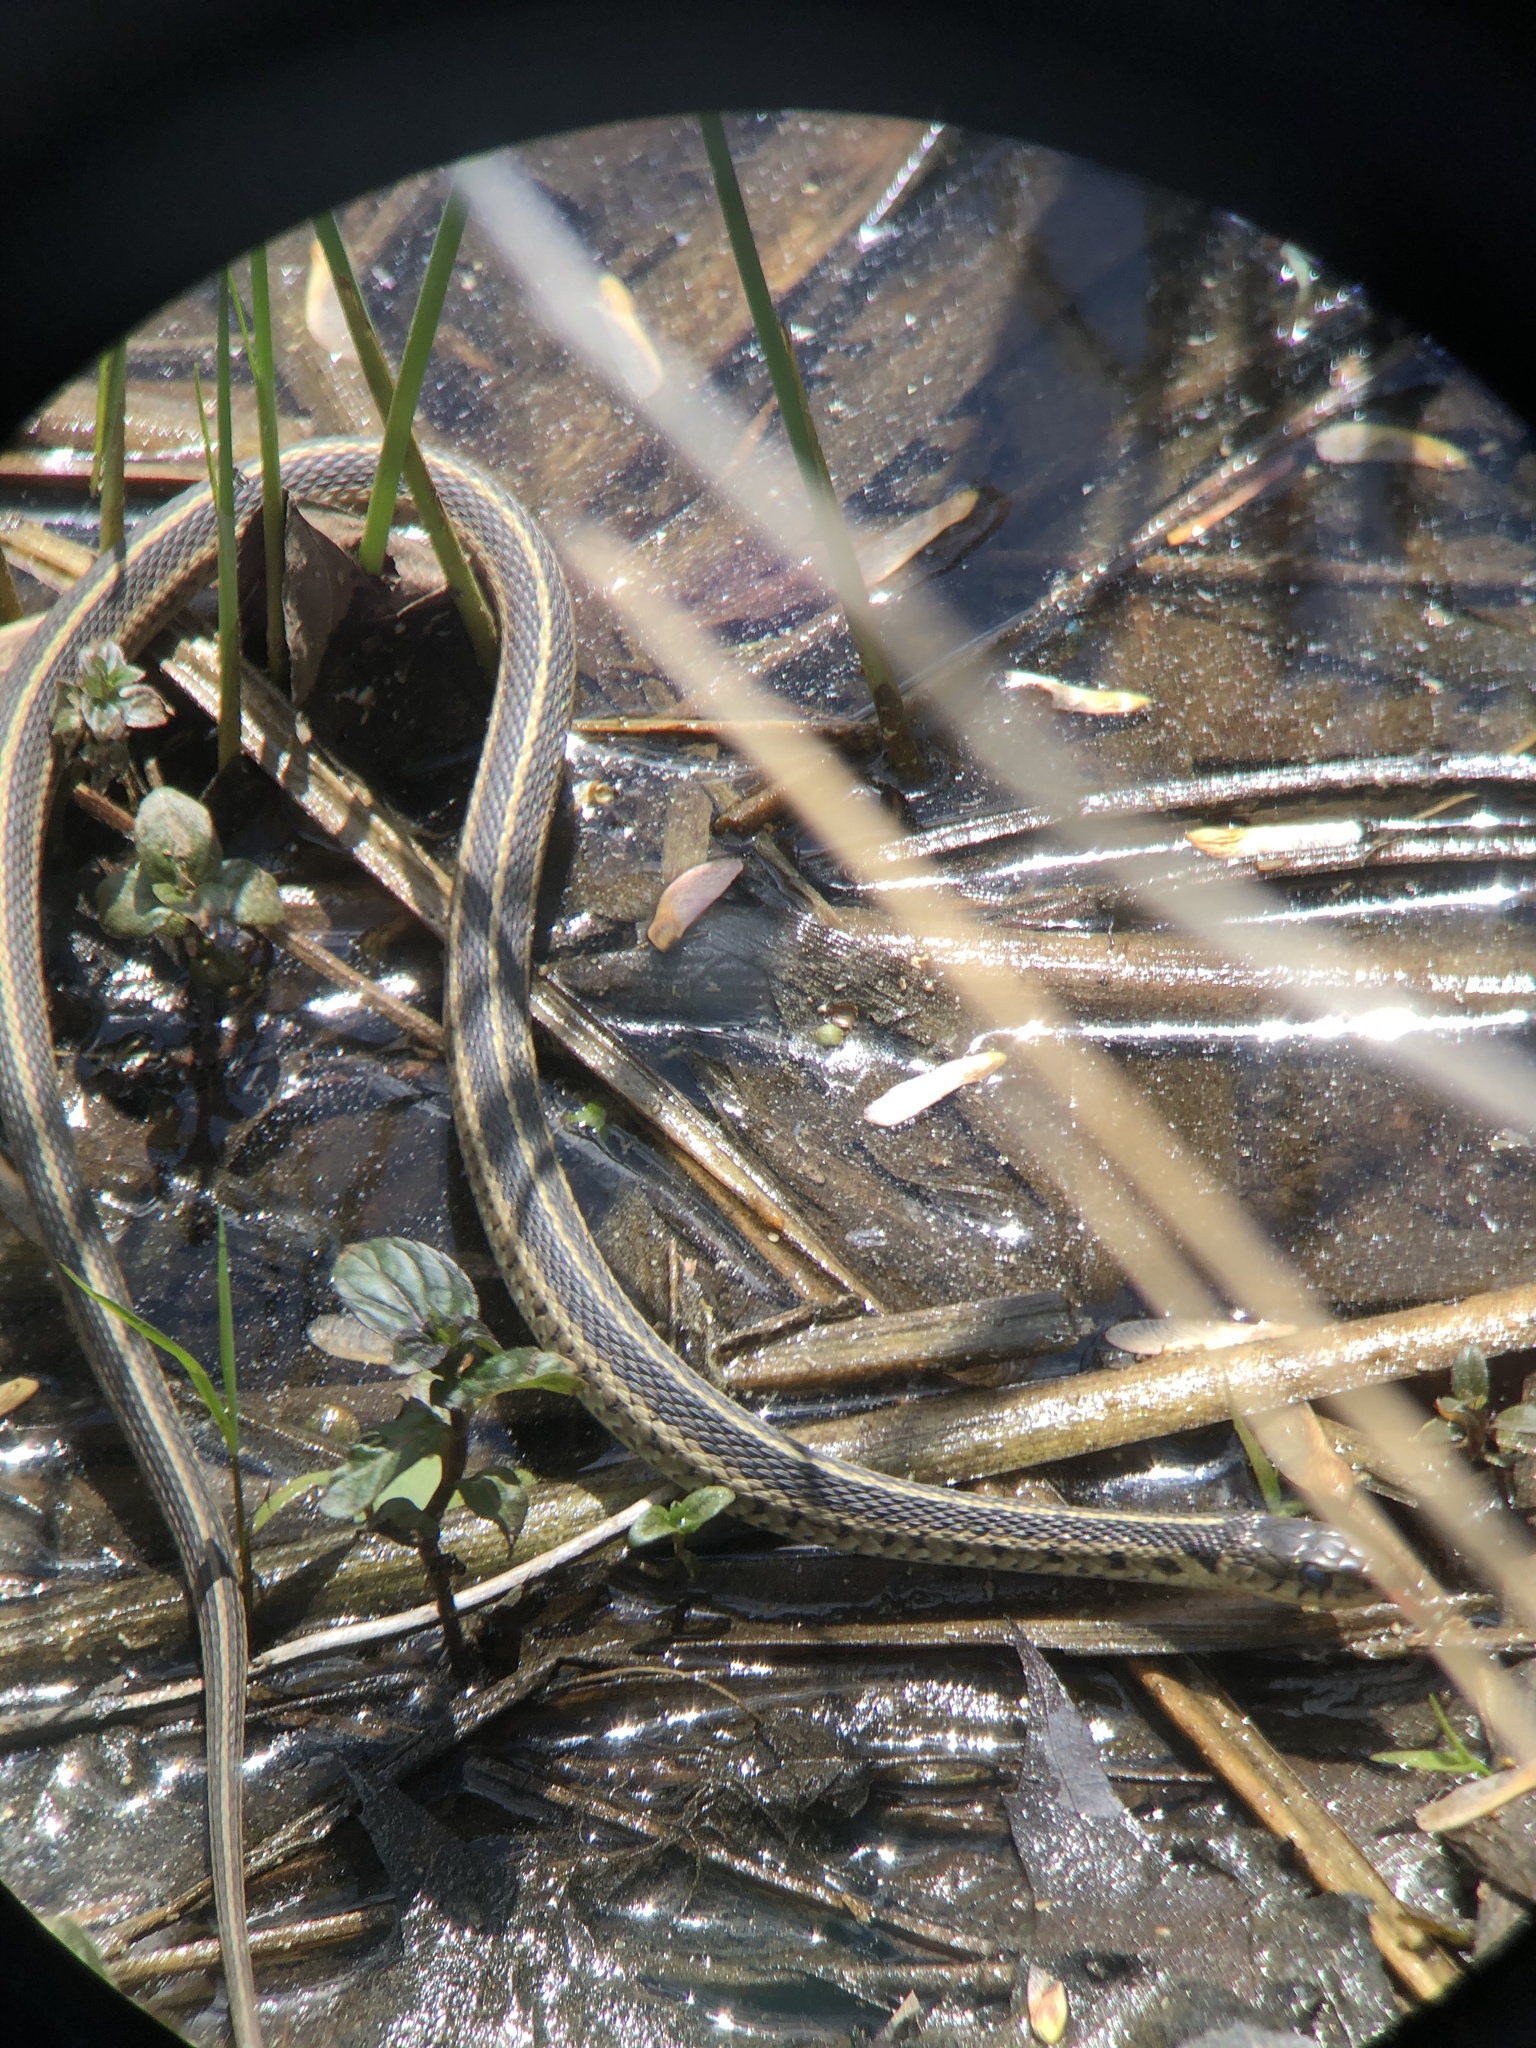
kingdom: Animalia
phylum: Chordata
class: Squamata
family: Colubridae
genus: Thamnophis
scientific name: Thamnophis sirtalis
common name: Common garter snake
